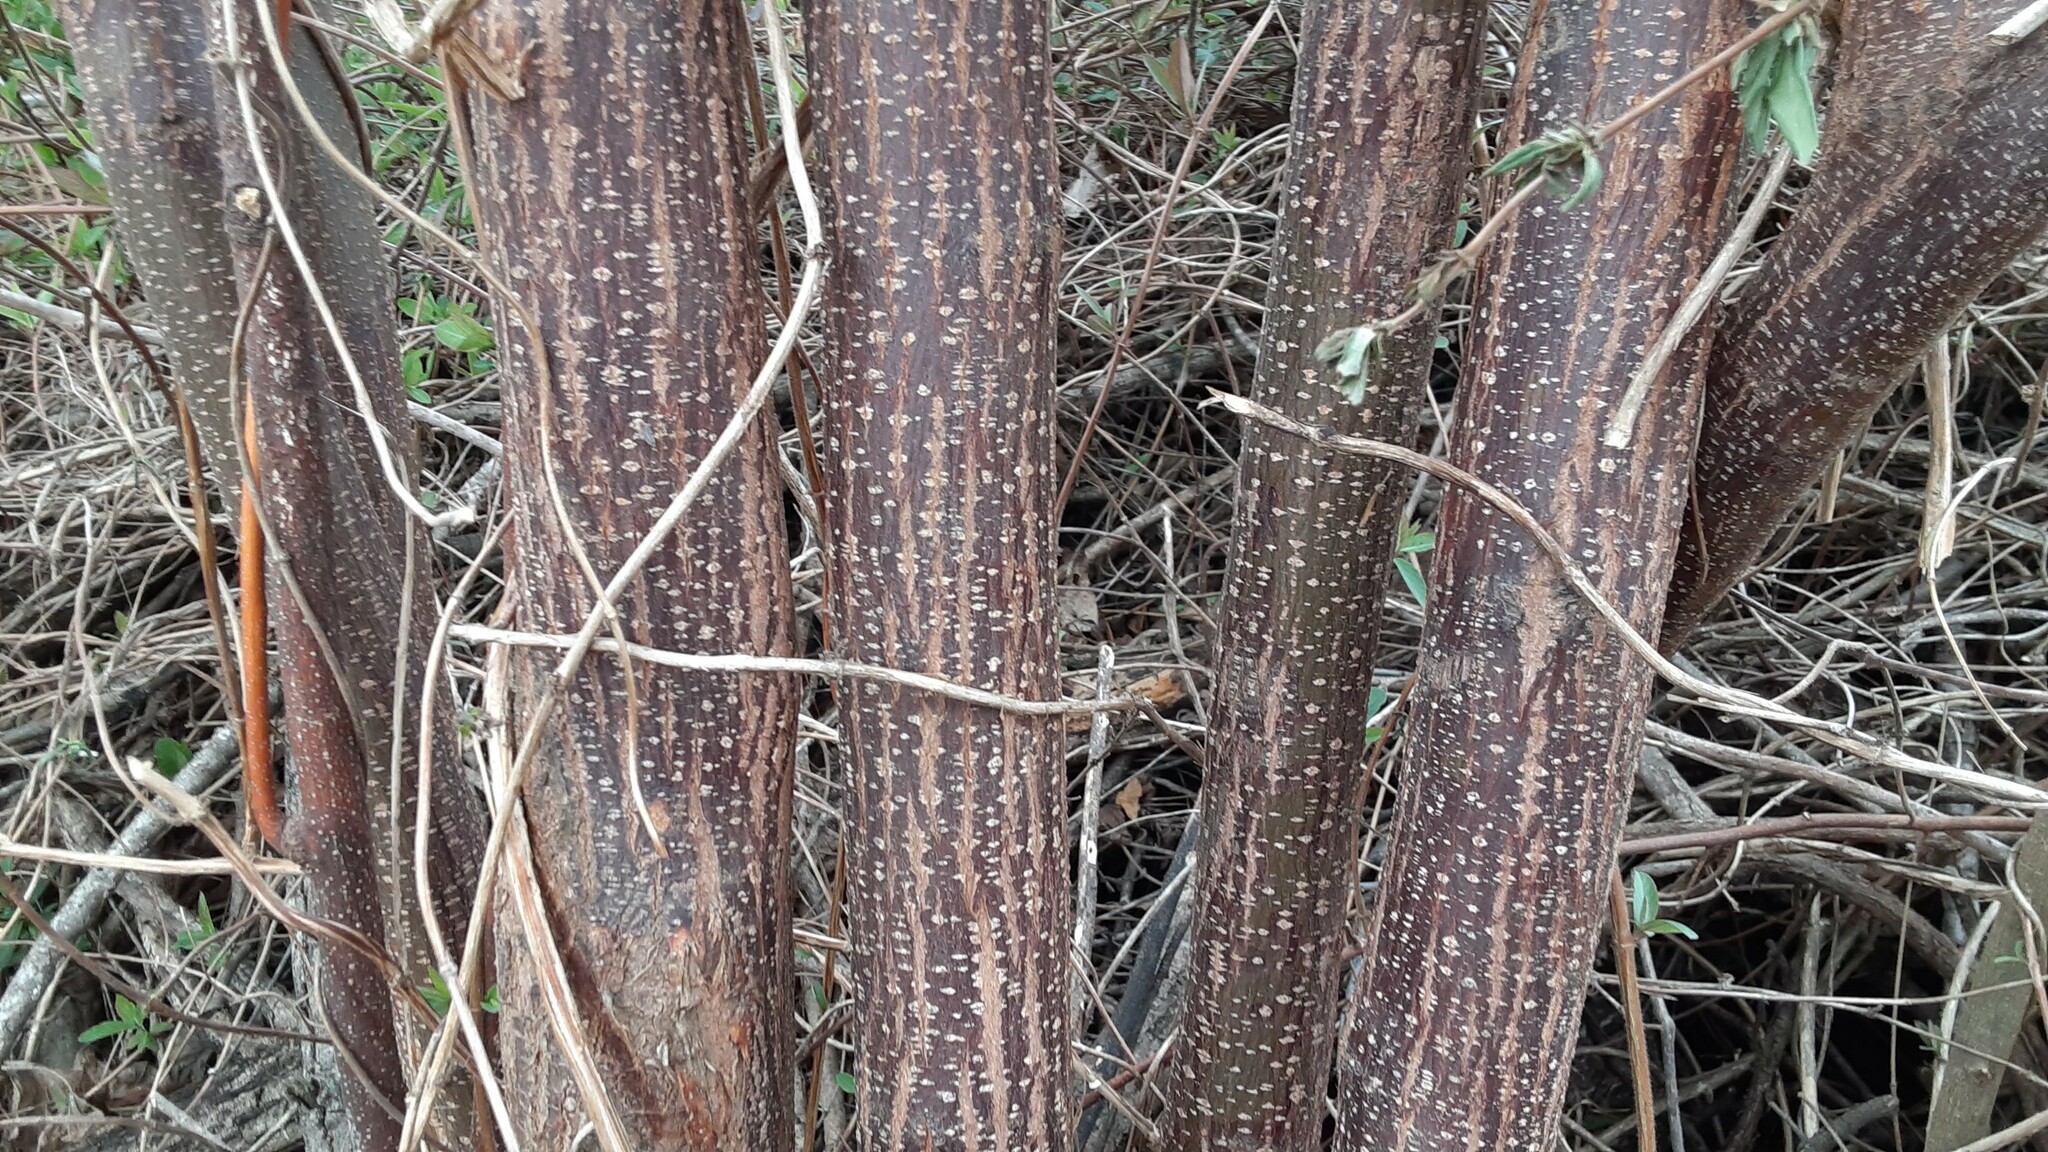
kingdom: Plantae
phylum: Tracheophyta
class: Magnoliopsida
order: Sapindales
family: Meliaceae
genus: Melia
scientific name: Melia azedarach
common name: Chinaberrytree
